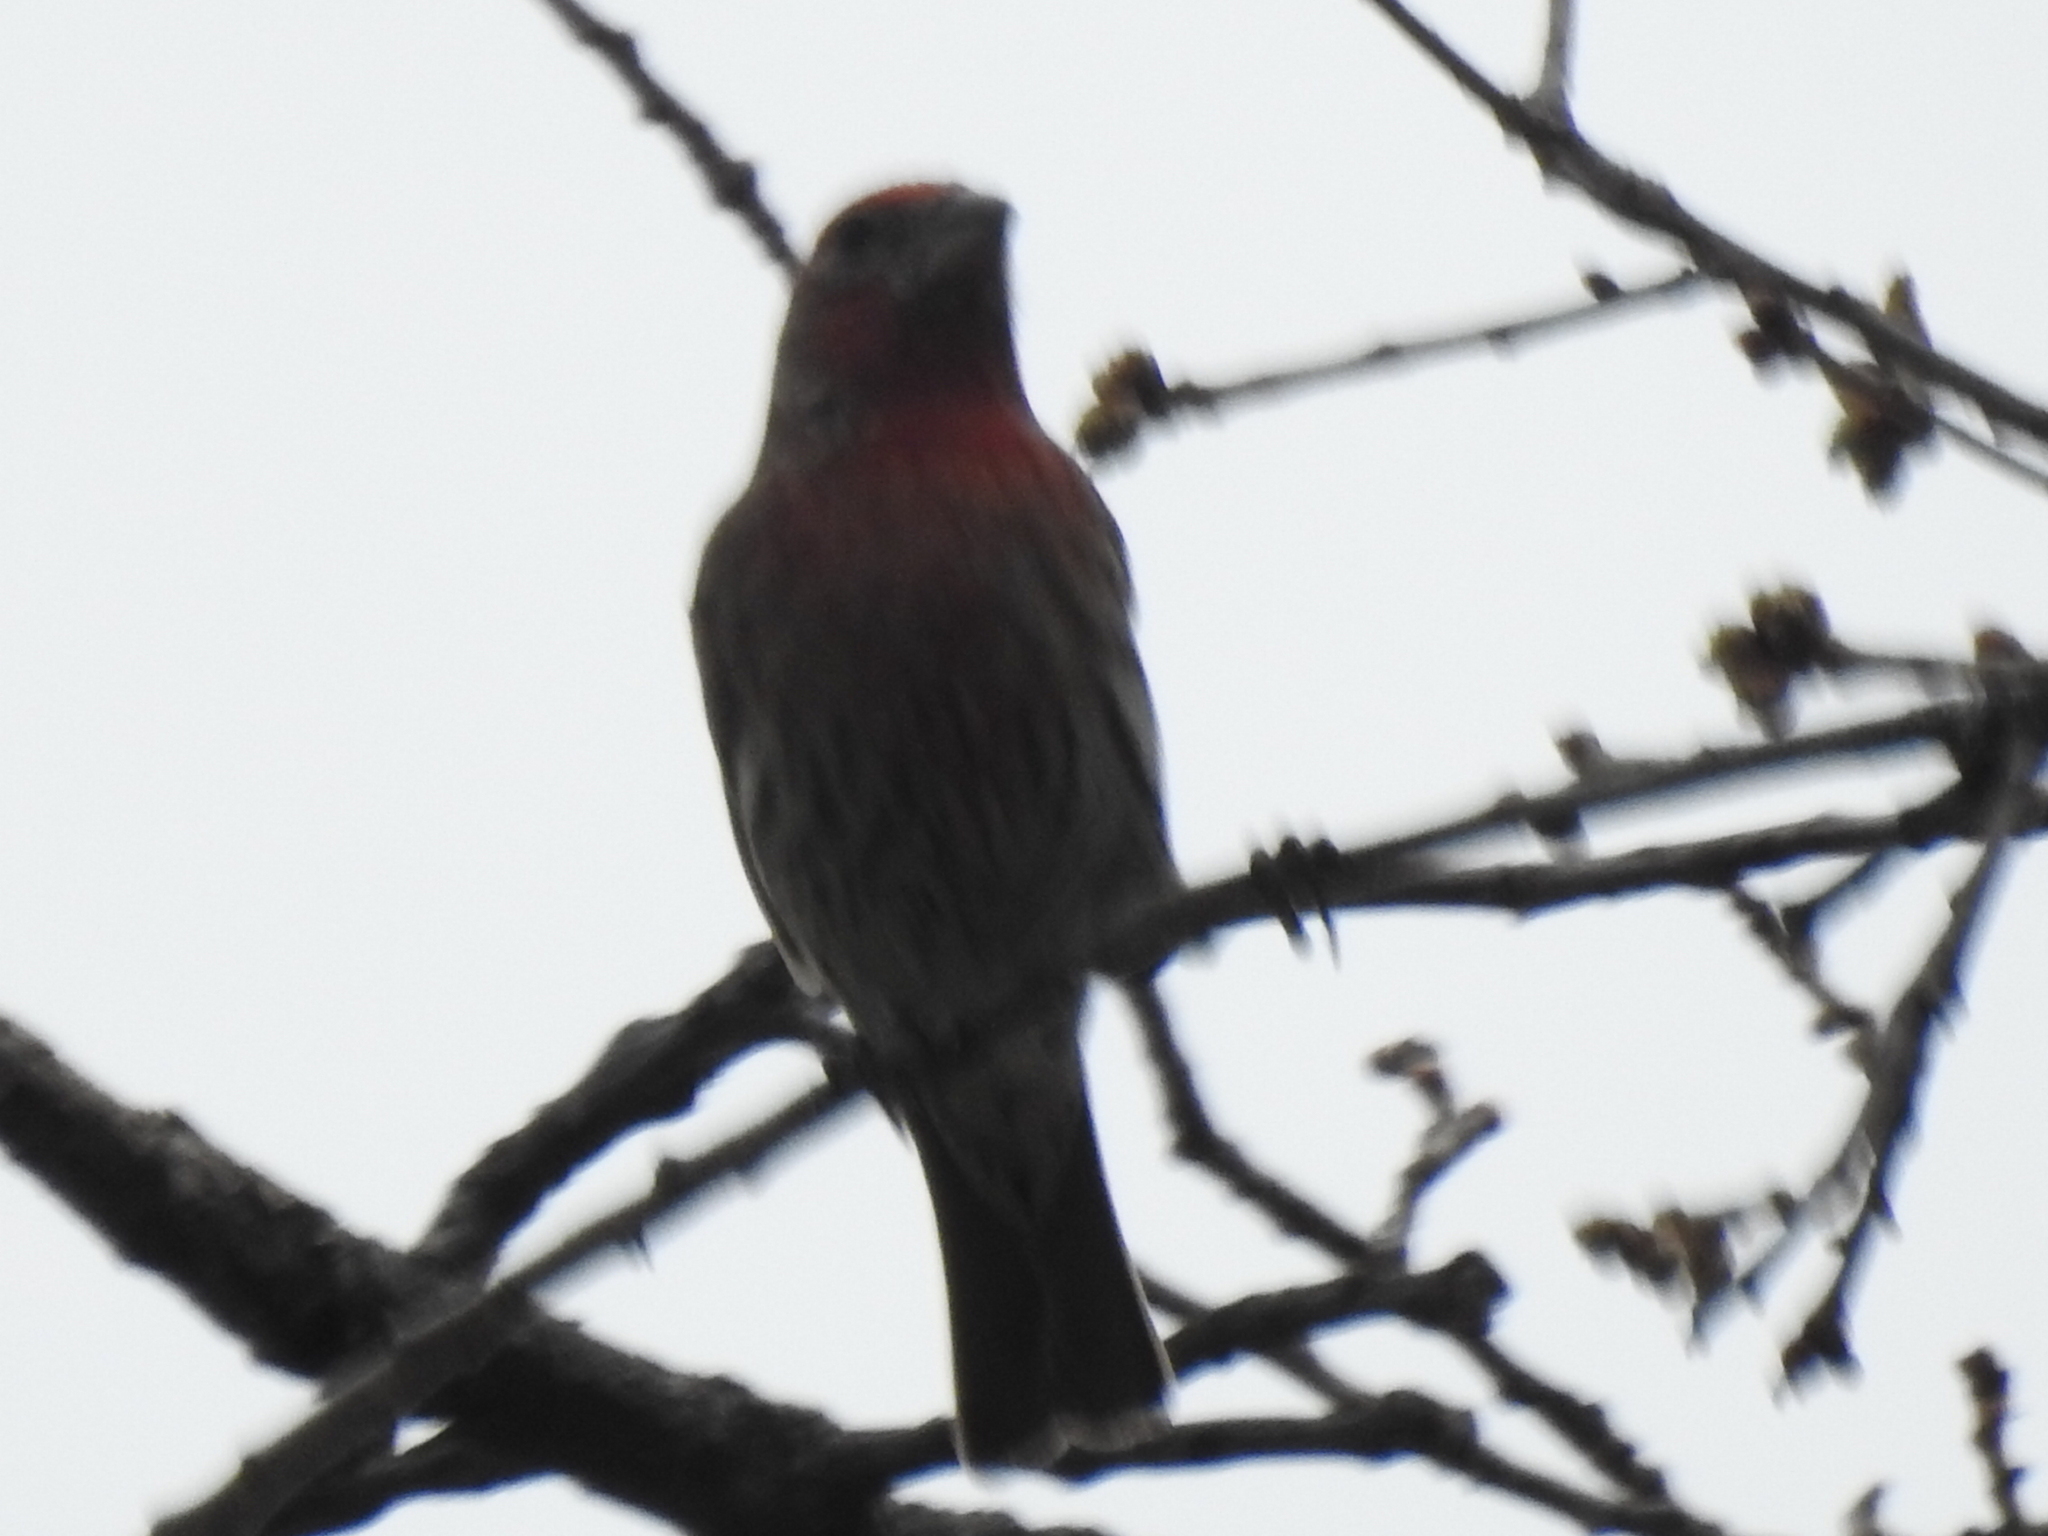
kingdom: Animalia
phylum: Chordata
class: Aves
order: Passeriformes
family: Fringillidae
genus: Haemorhous
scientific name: Haemorhous mexicanus
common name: House finch
